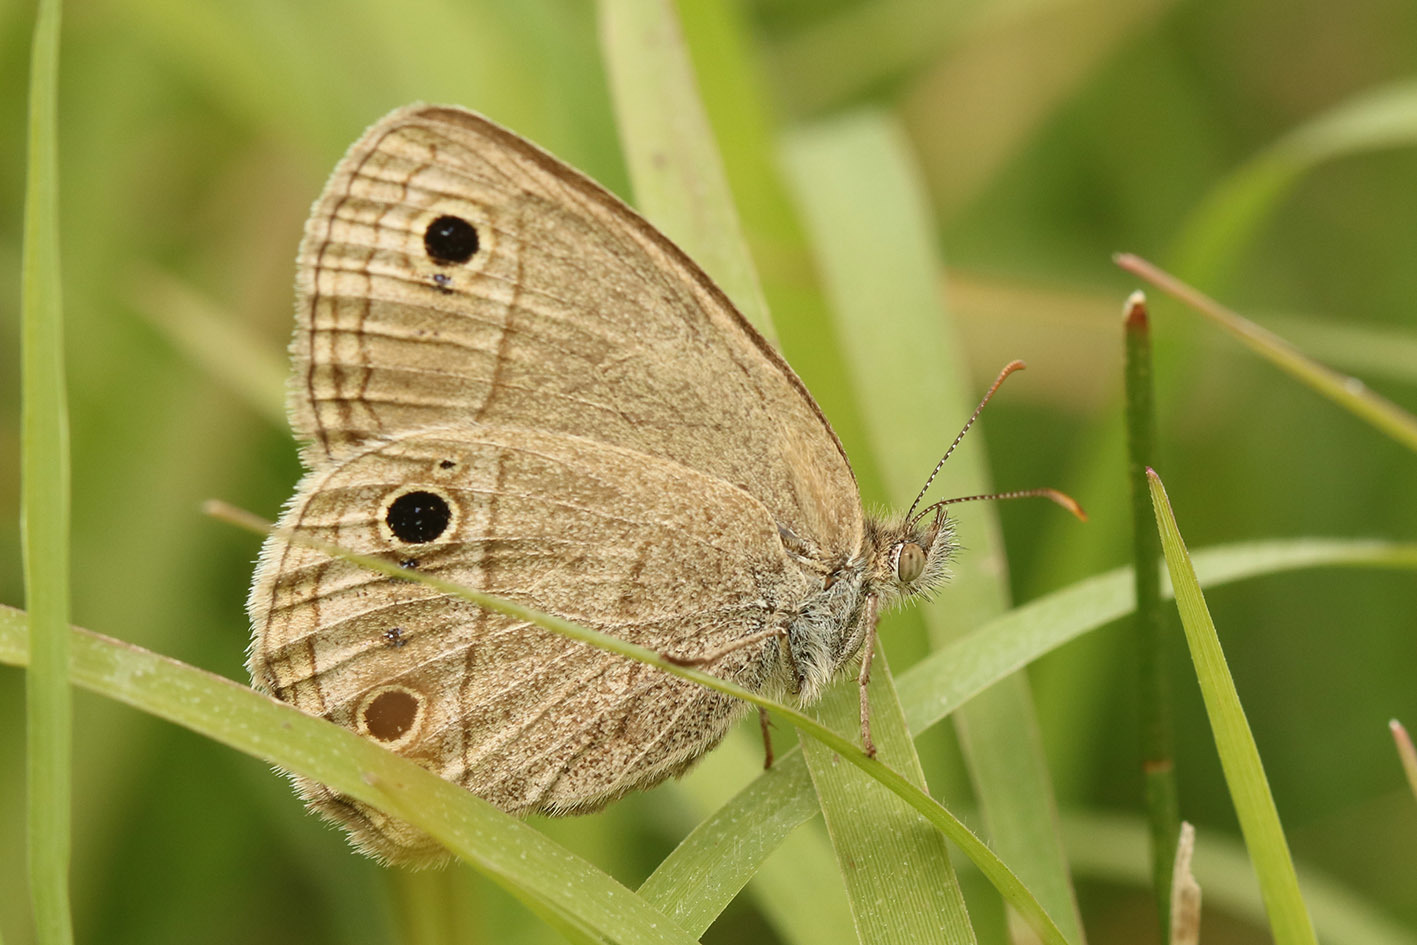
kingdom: Animalia
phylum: Arthropoda
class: Insecta
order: Lepidoptera
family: Nymphalidae
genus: Stegosatyrus
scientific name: Stegosatyrus periphas
